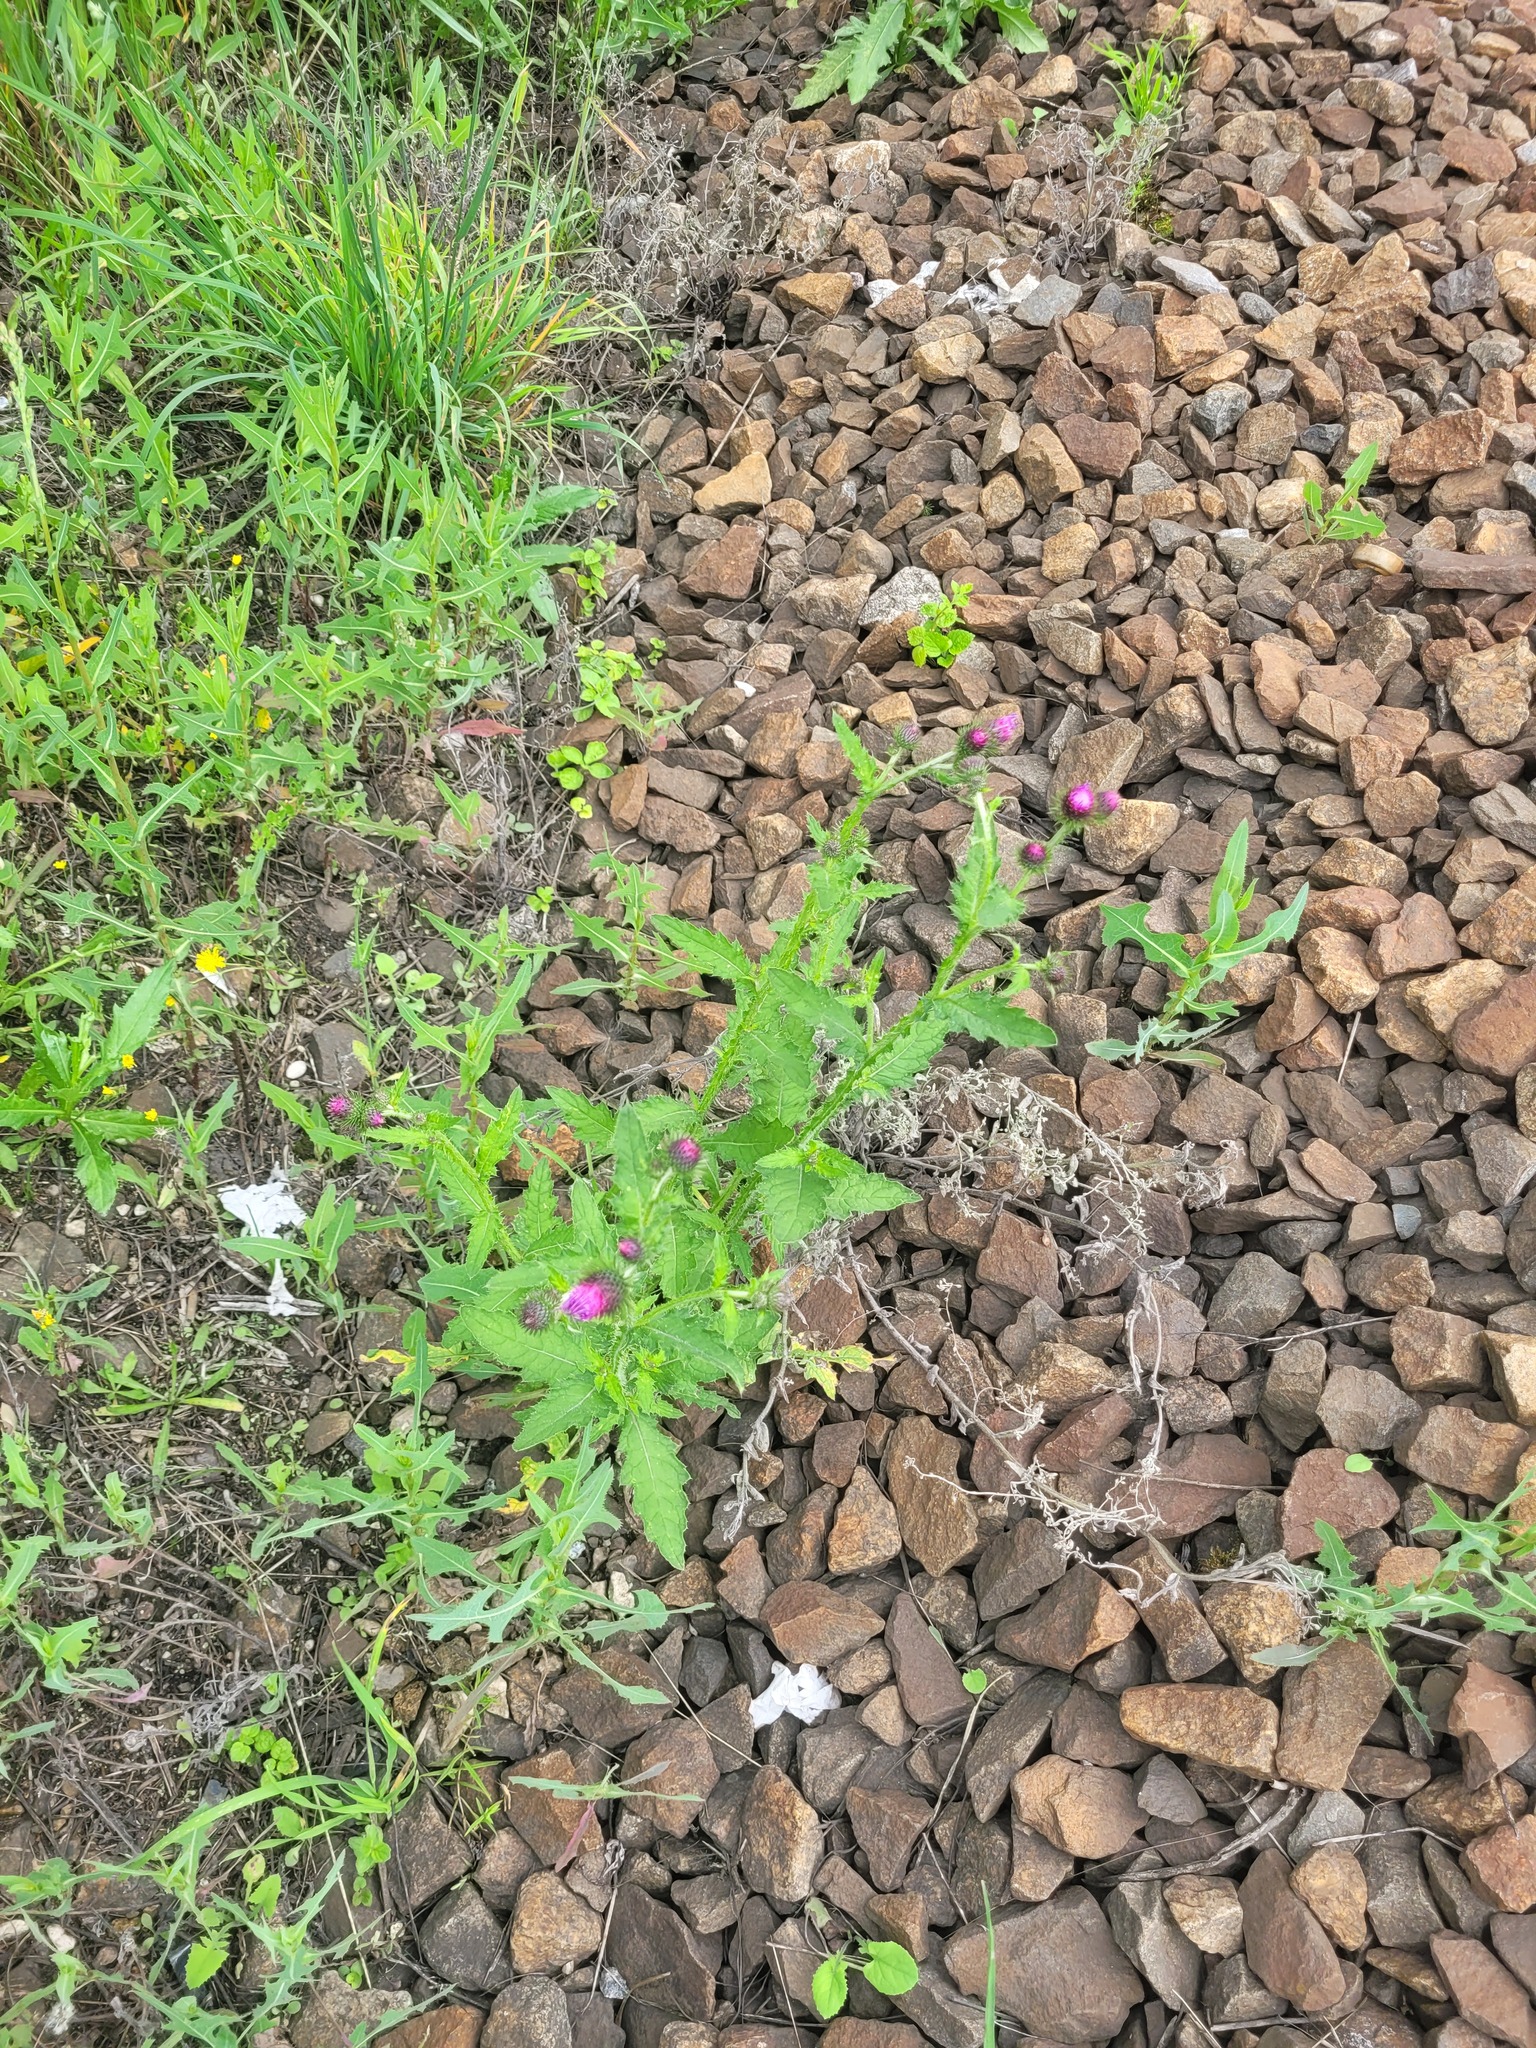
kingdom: Plantae
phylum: Tracheophyta
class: Magnoliopsida
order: Asterales
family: Asteraceae
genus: Carduus
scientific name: Carduus crispus
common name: Welted thistle
